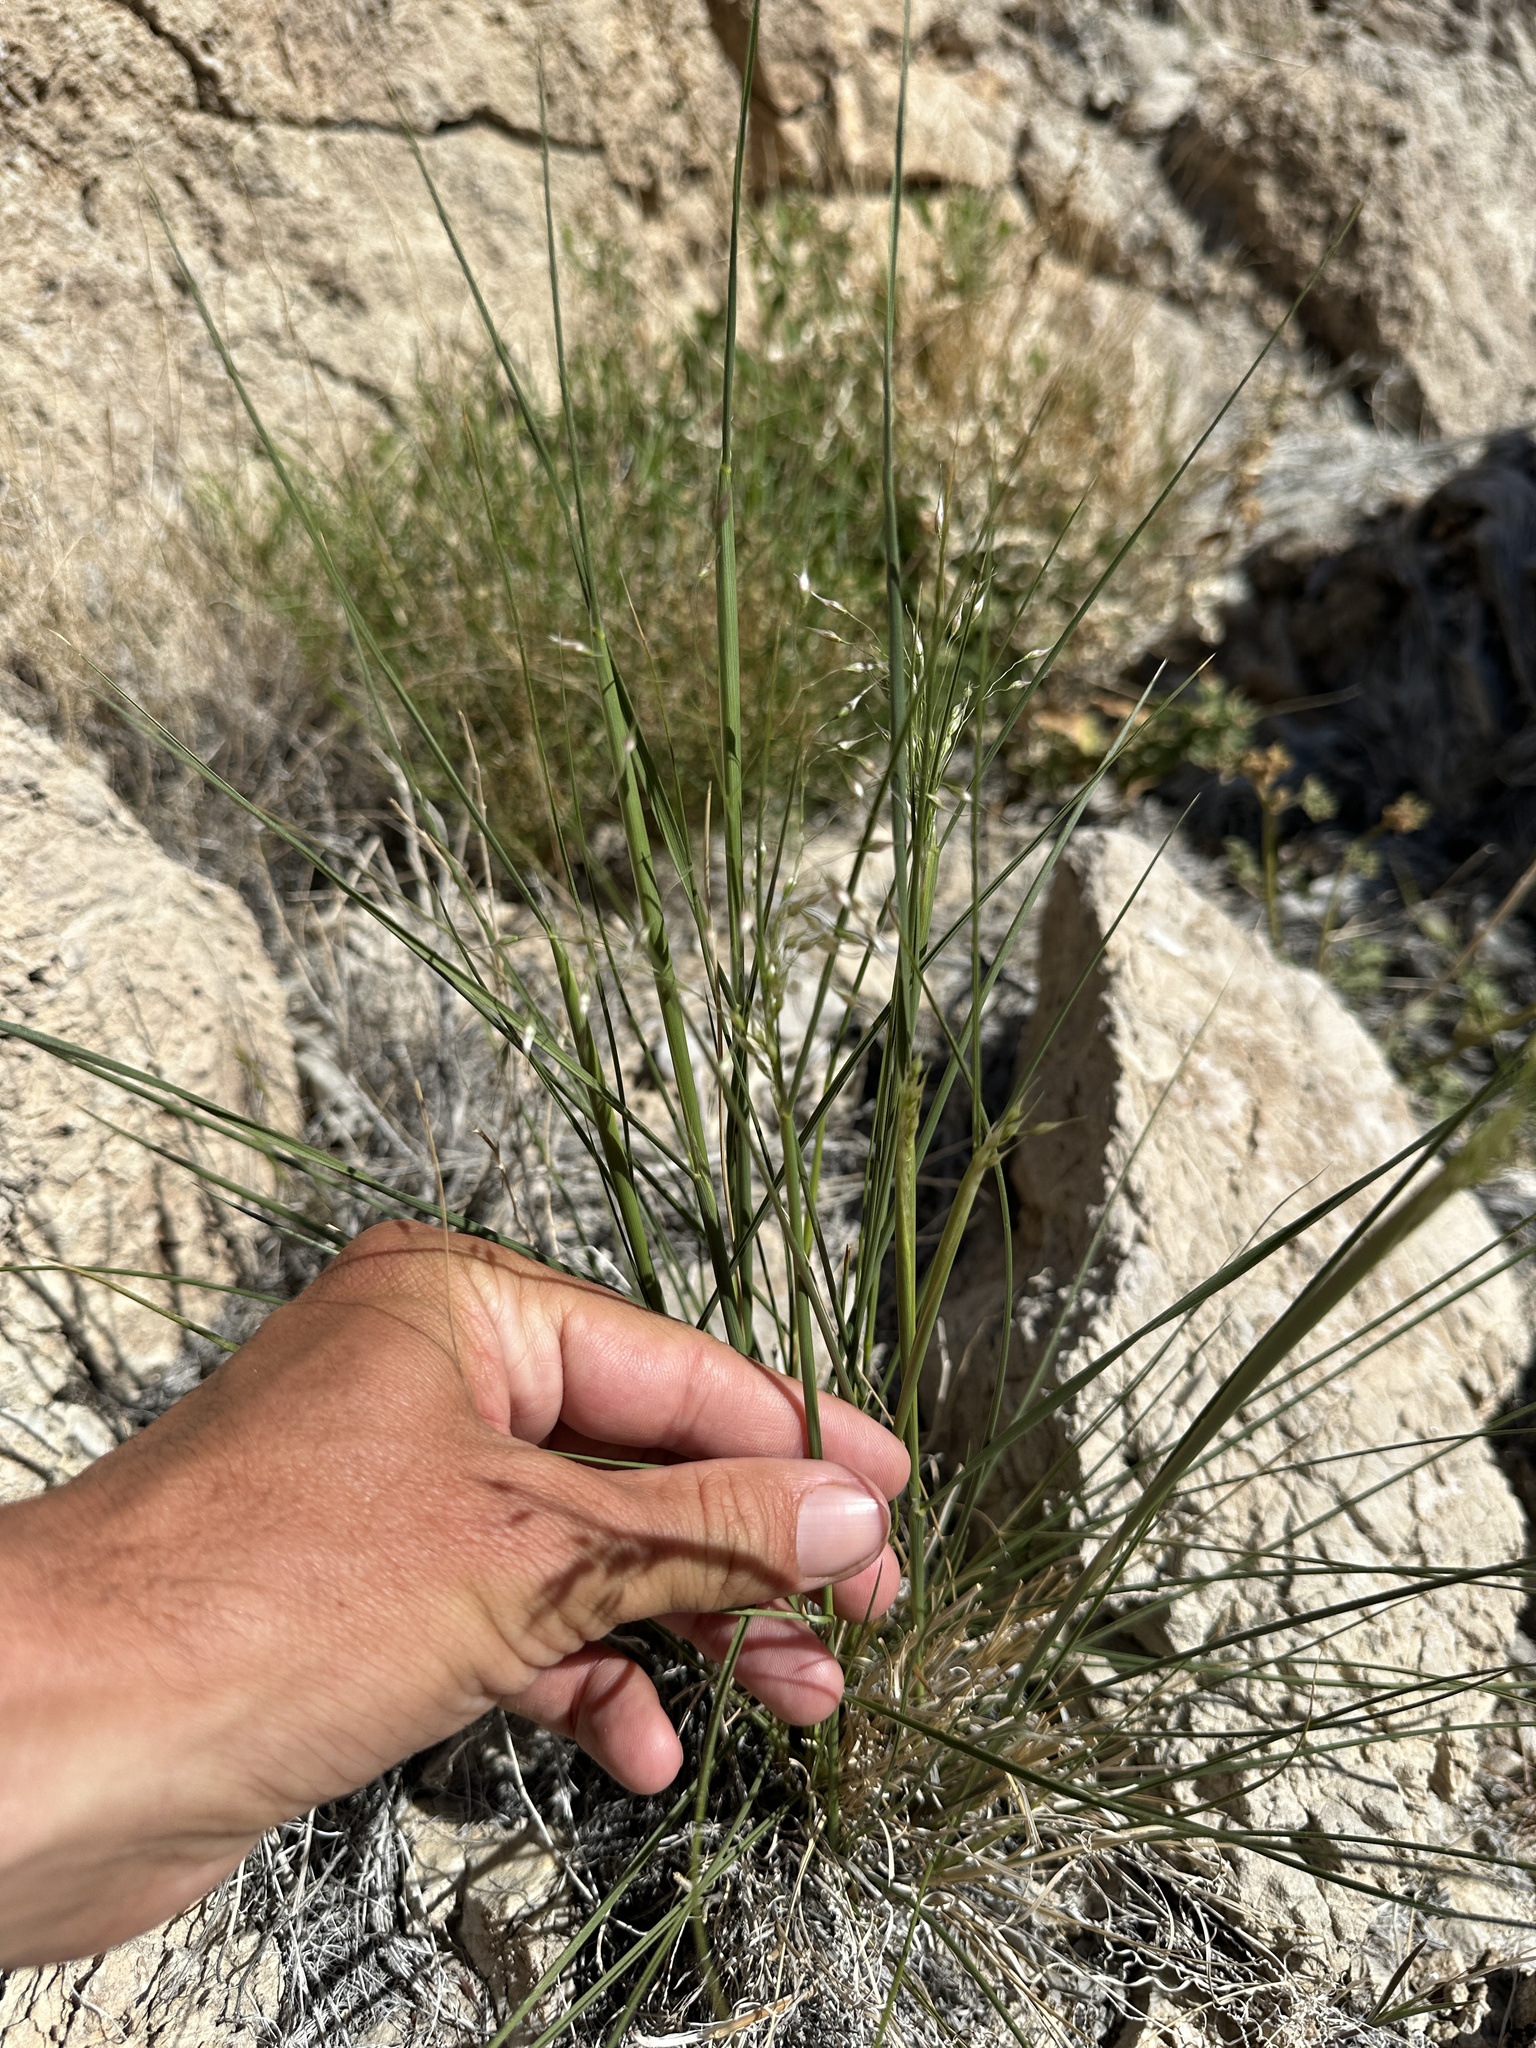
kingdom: Plantae
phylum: Tracheophyta
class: Liliopsida
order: Poales
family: Poaceae
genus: Eriocoma
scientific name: Eriocoma hymenoides
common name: Indian mountain ricegrass
